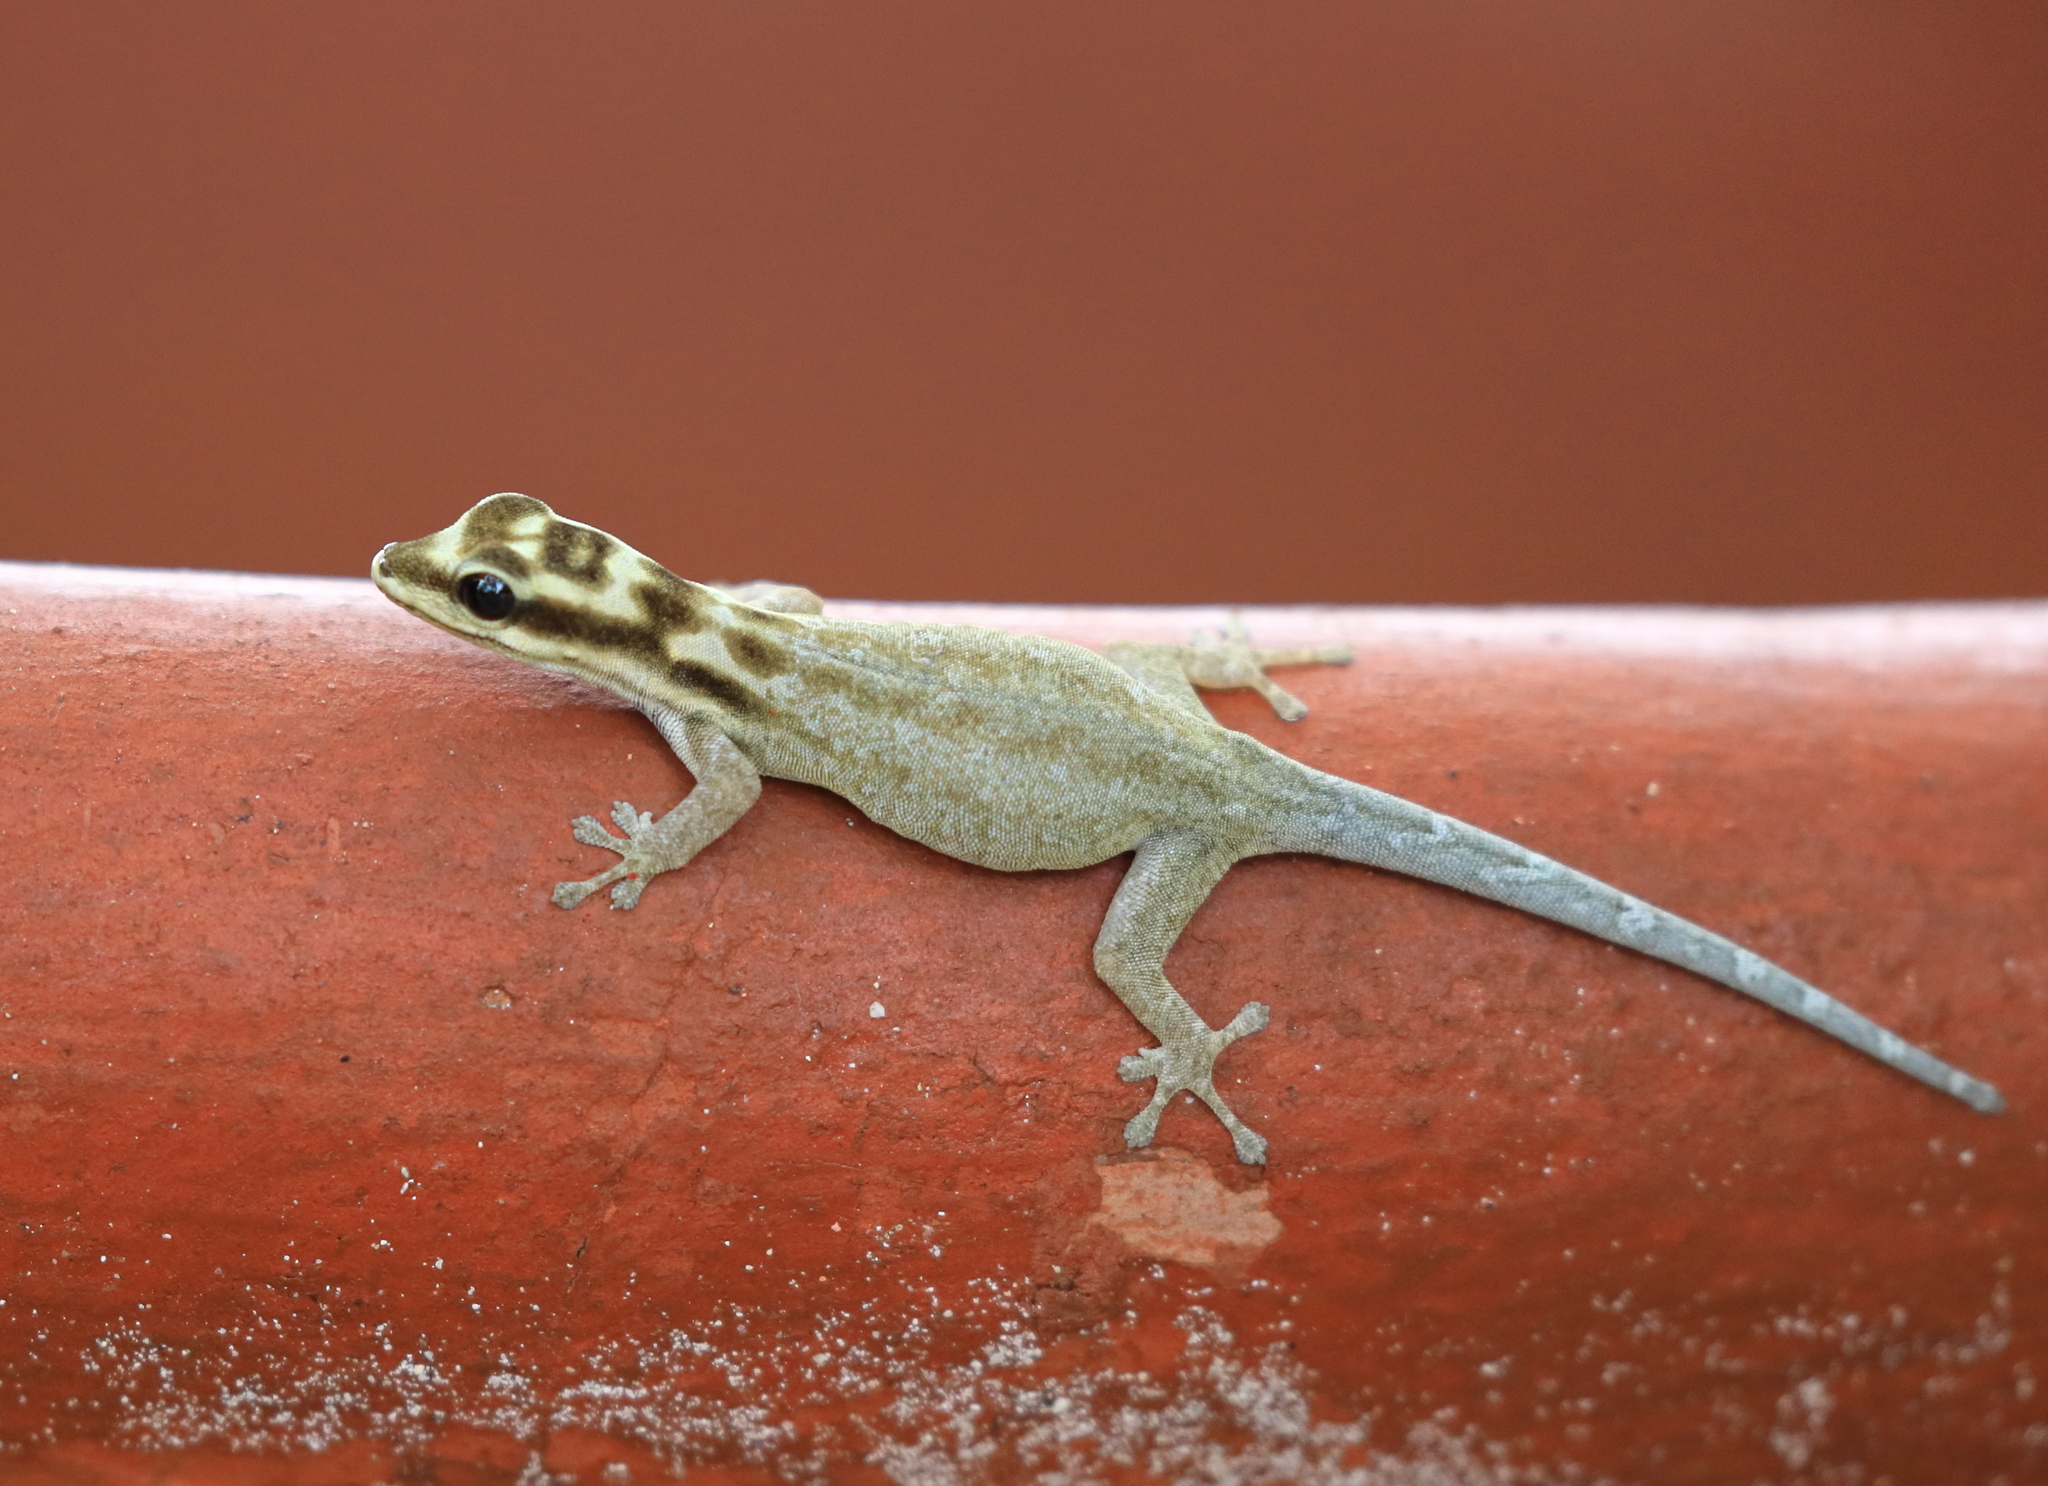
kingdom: Animalia
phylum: Chordata
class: Squamata
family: Gekkonidae
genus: Lygodactylus
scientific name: Lygodactylus mombasicus
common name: White-headed dwarf gecko
